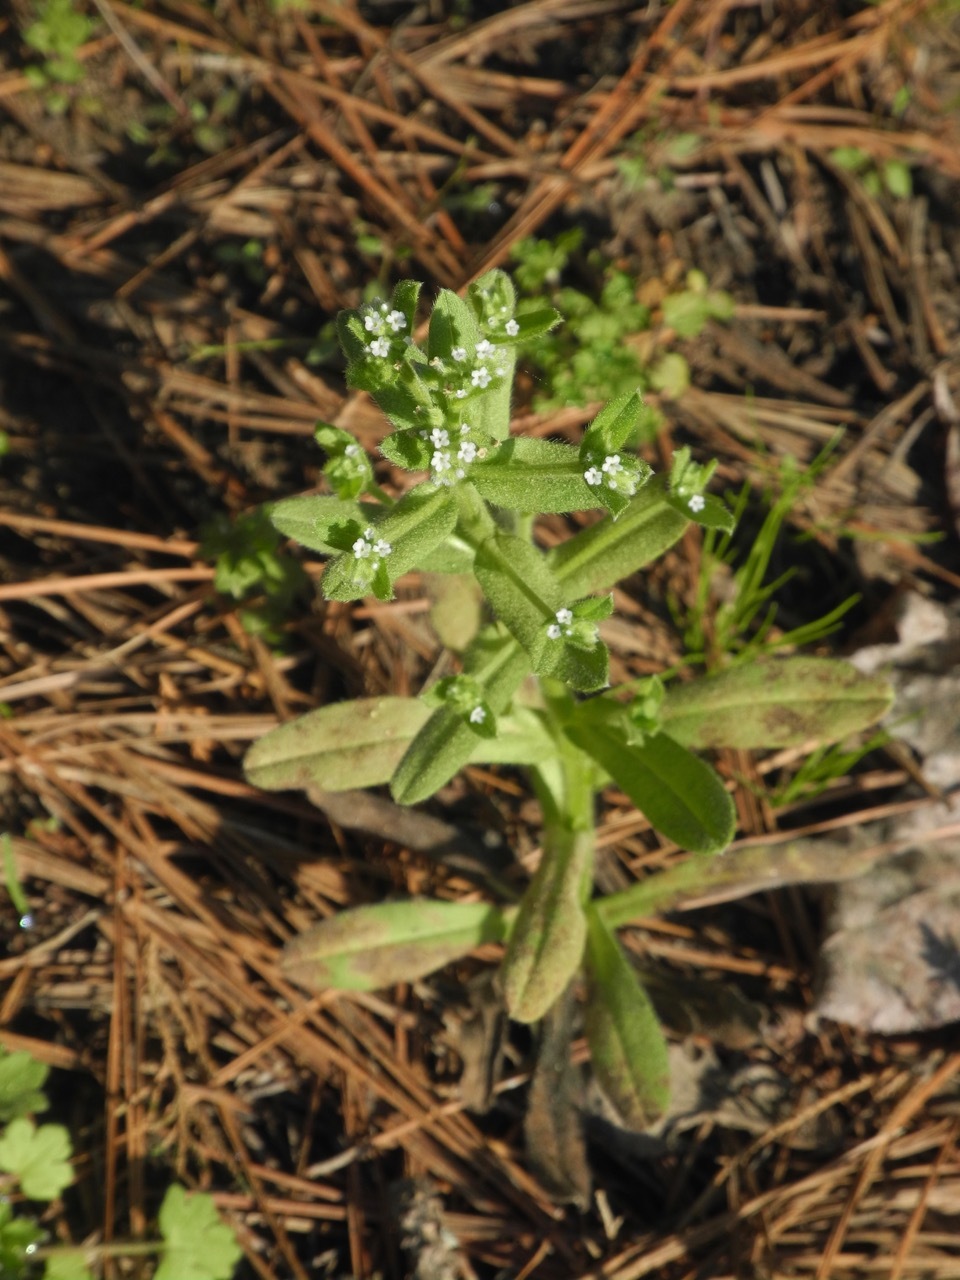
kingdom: Plantae
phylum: Tracheophyta
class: Magnoliopsida
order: Boraginales
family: Boraginaceae
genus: Myosotis
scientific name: Myosotis macrosperma
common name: Large-seed forget-me-not
